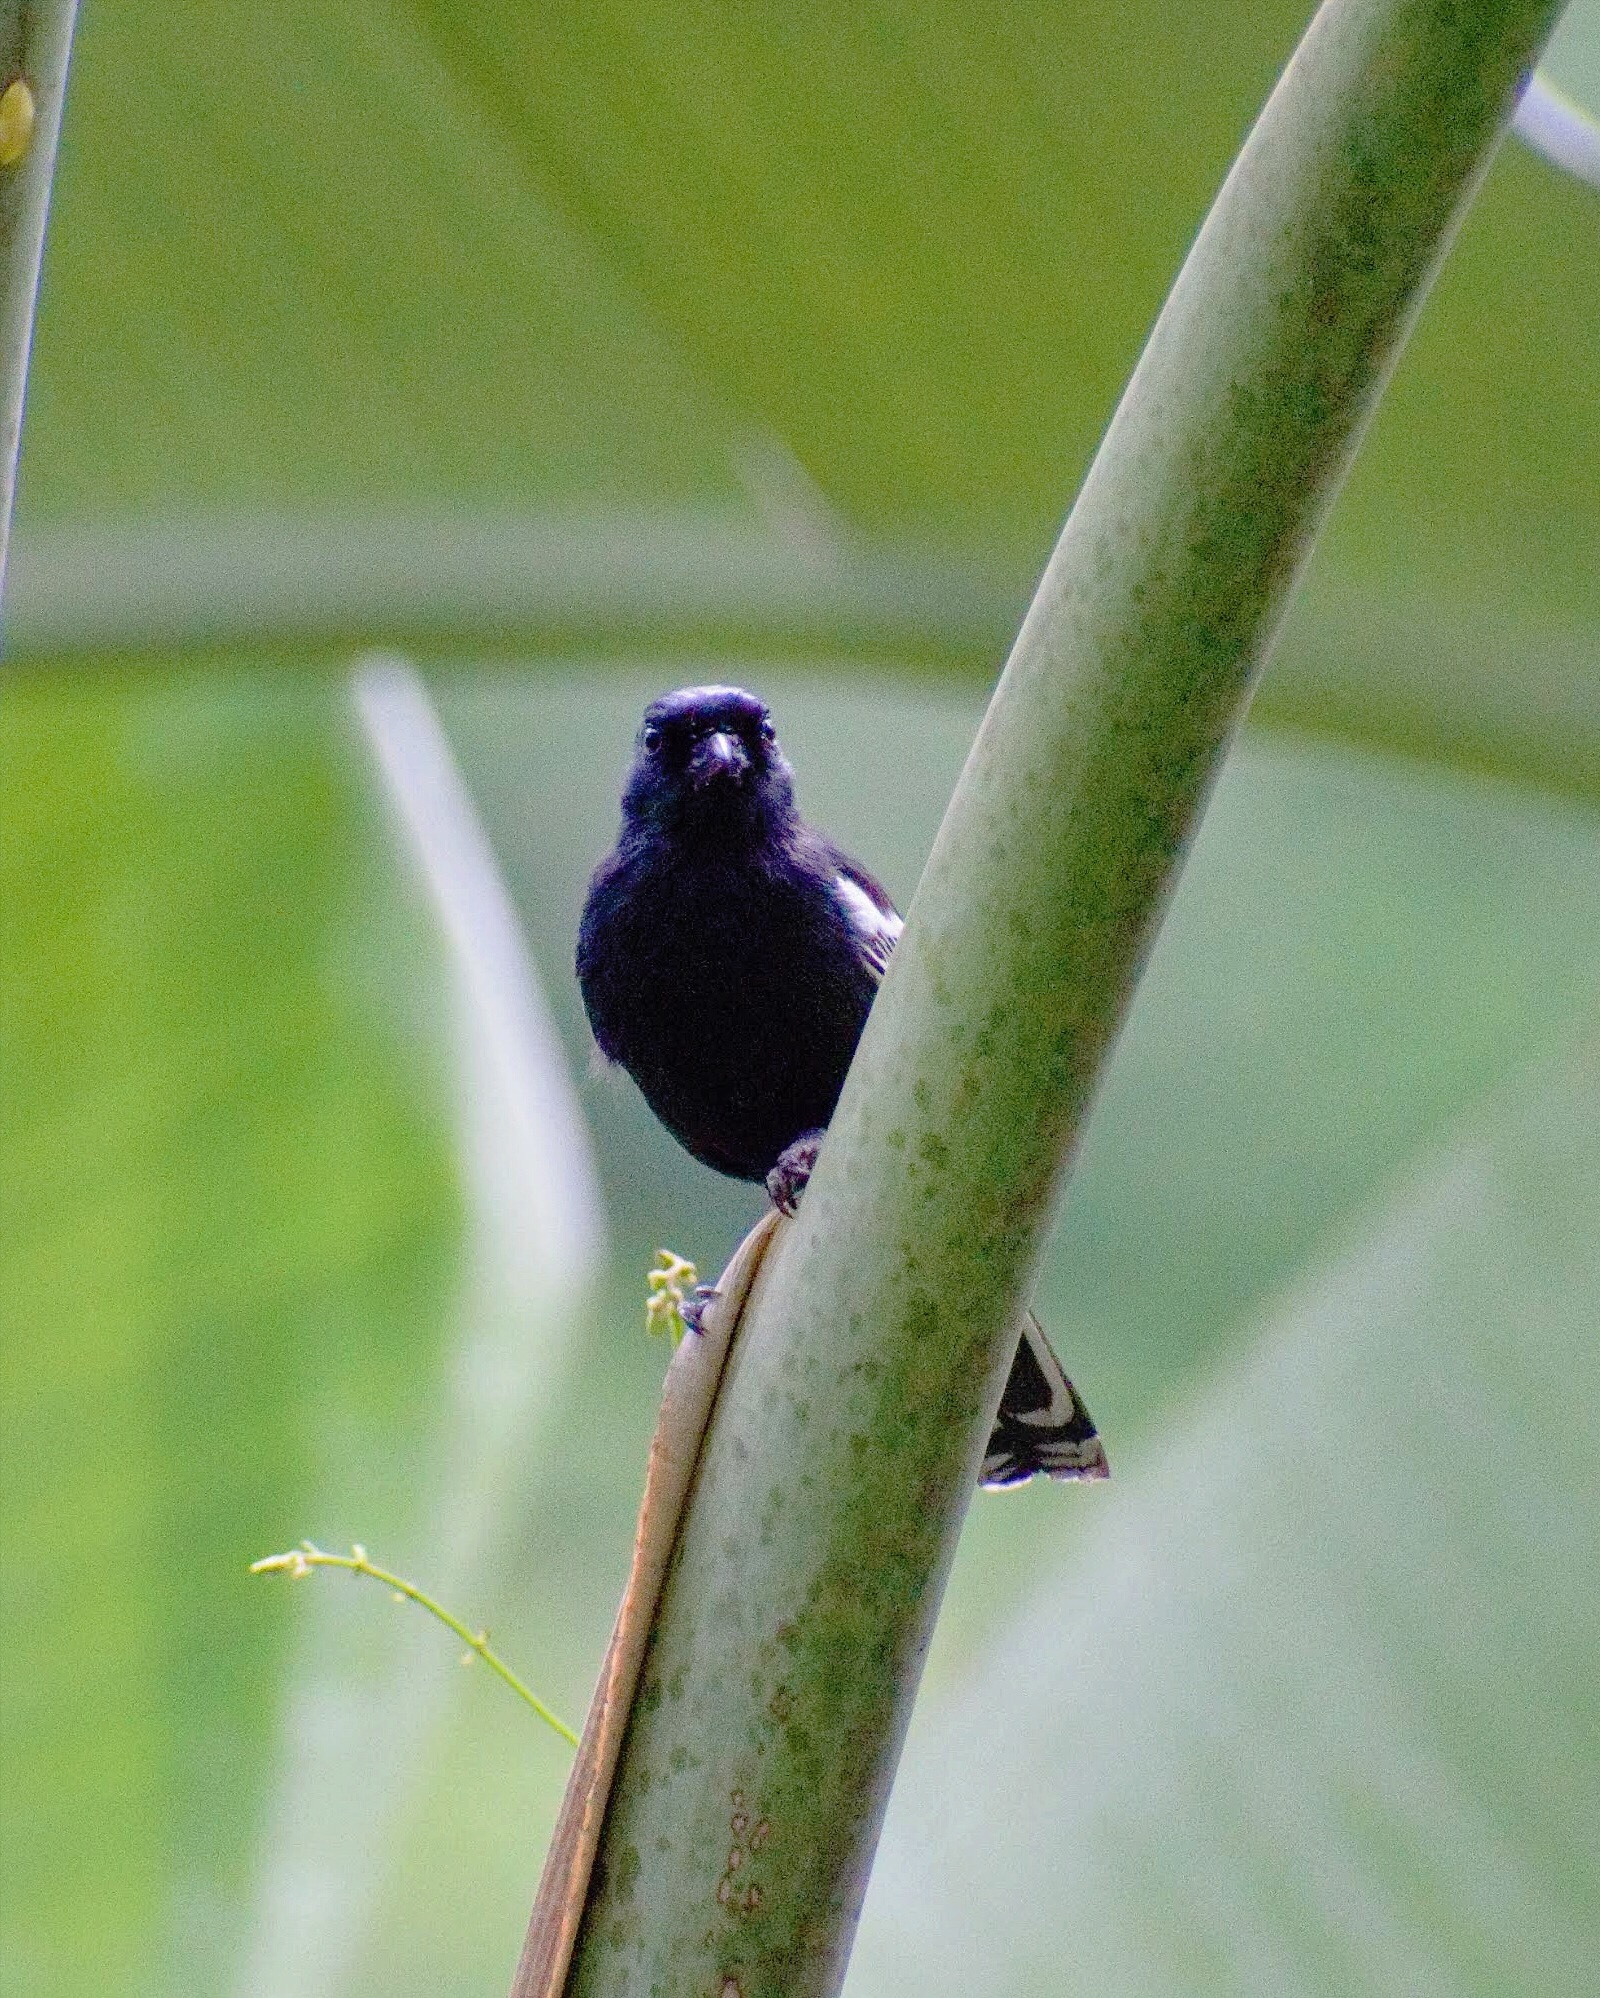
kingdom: Animalia
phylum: Chordata
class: Aves
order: Passeriformes
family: Paridae
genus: Parus
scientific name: Parus niger
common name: Southern black tit
